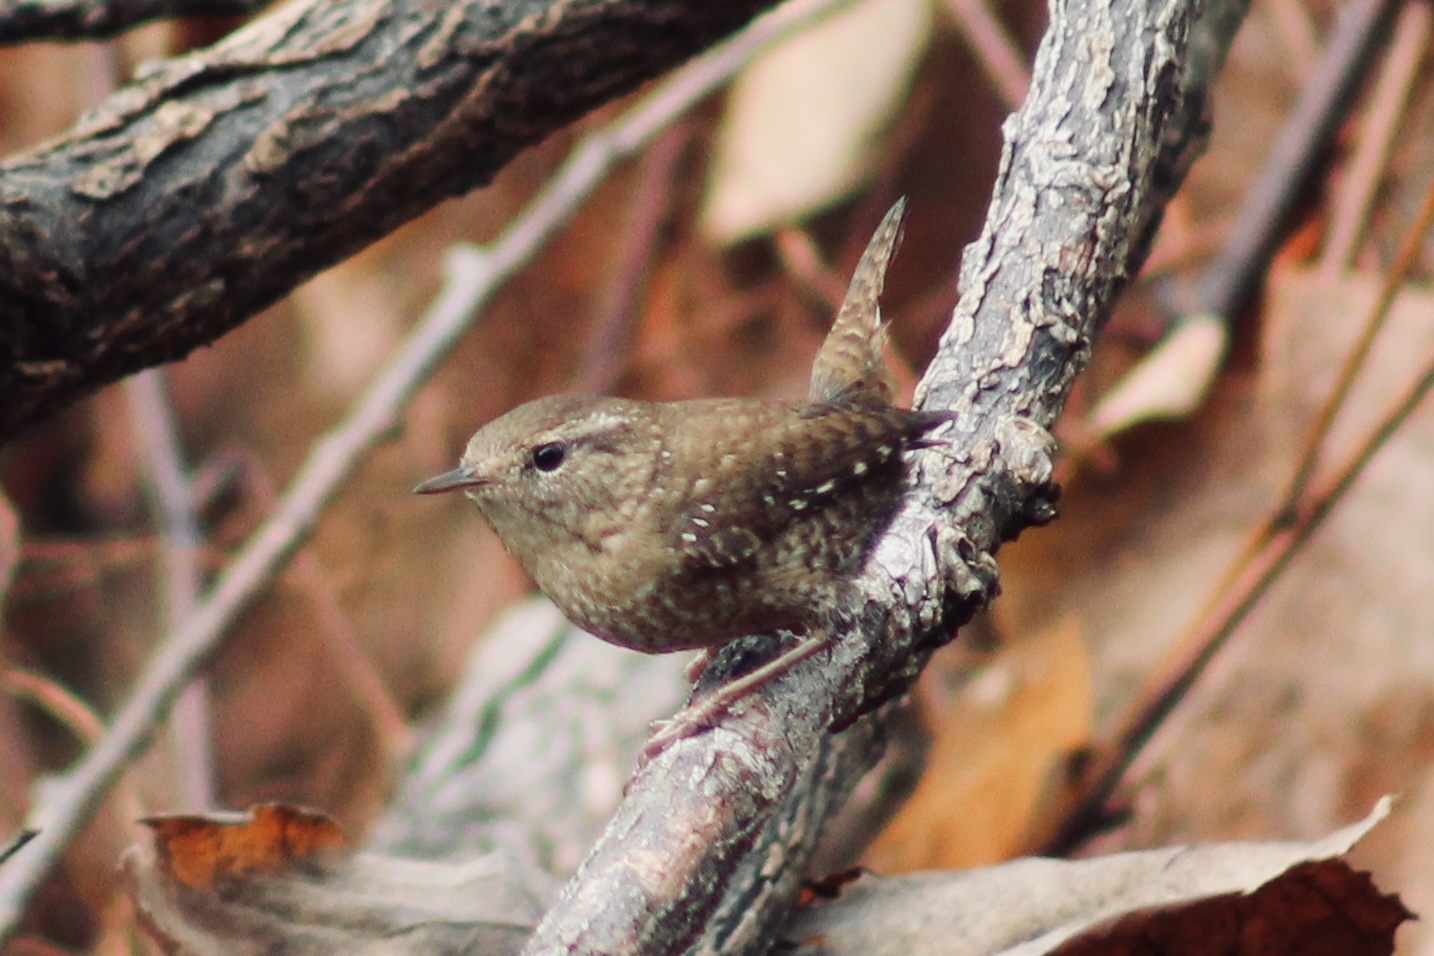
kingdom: Animalia
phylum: Chordata
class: Aves
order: Passeriformes
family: Troglodytidae
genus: Troglodytes
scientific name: Troglodytes hiemalis
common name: Winter wren
